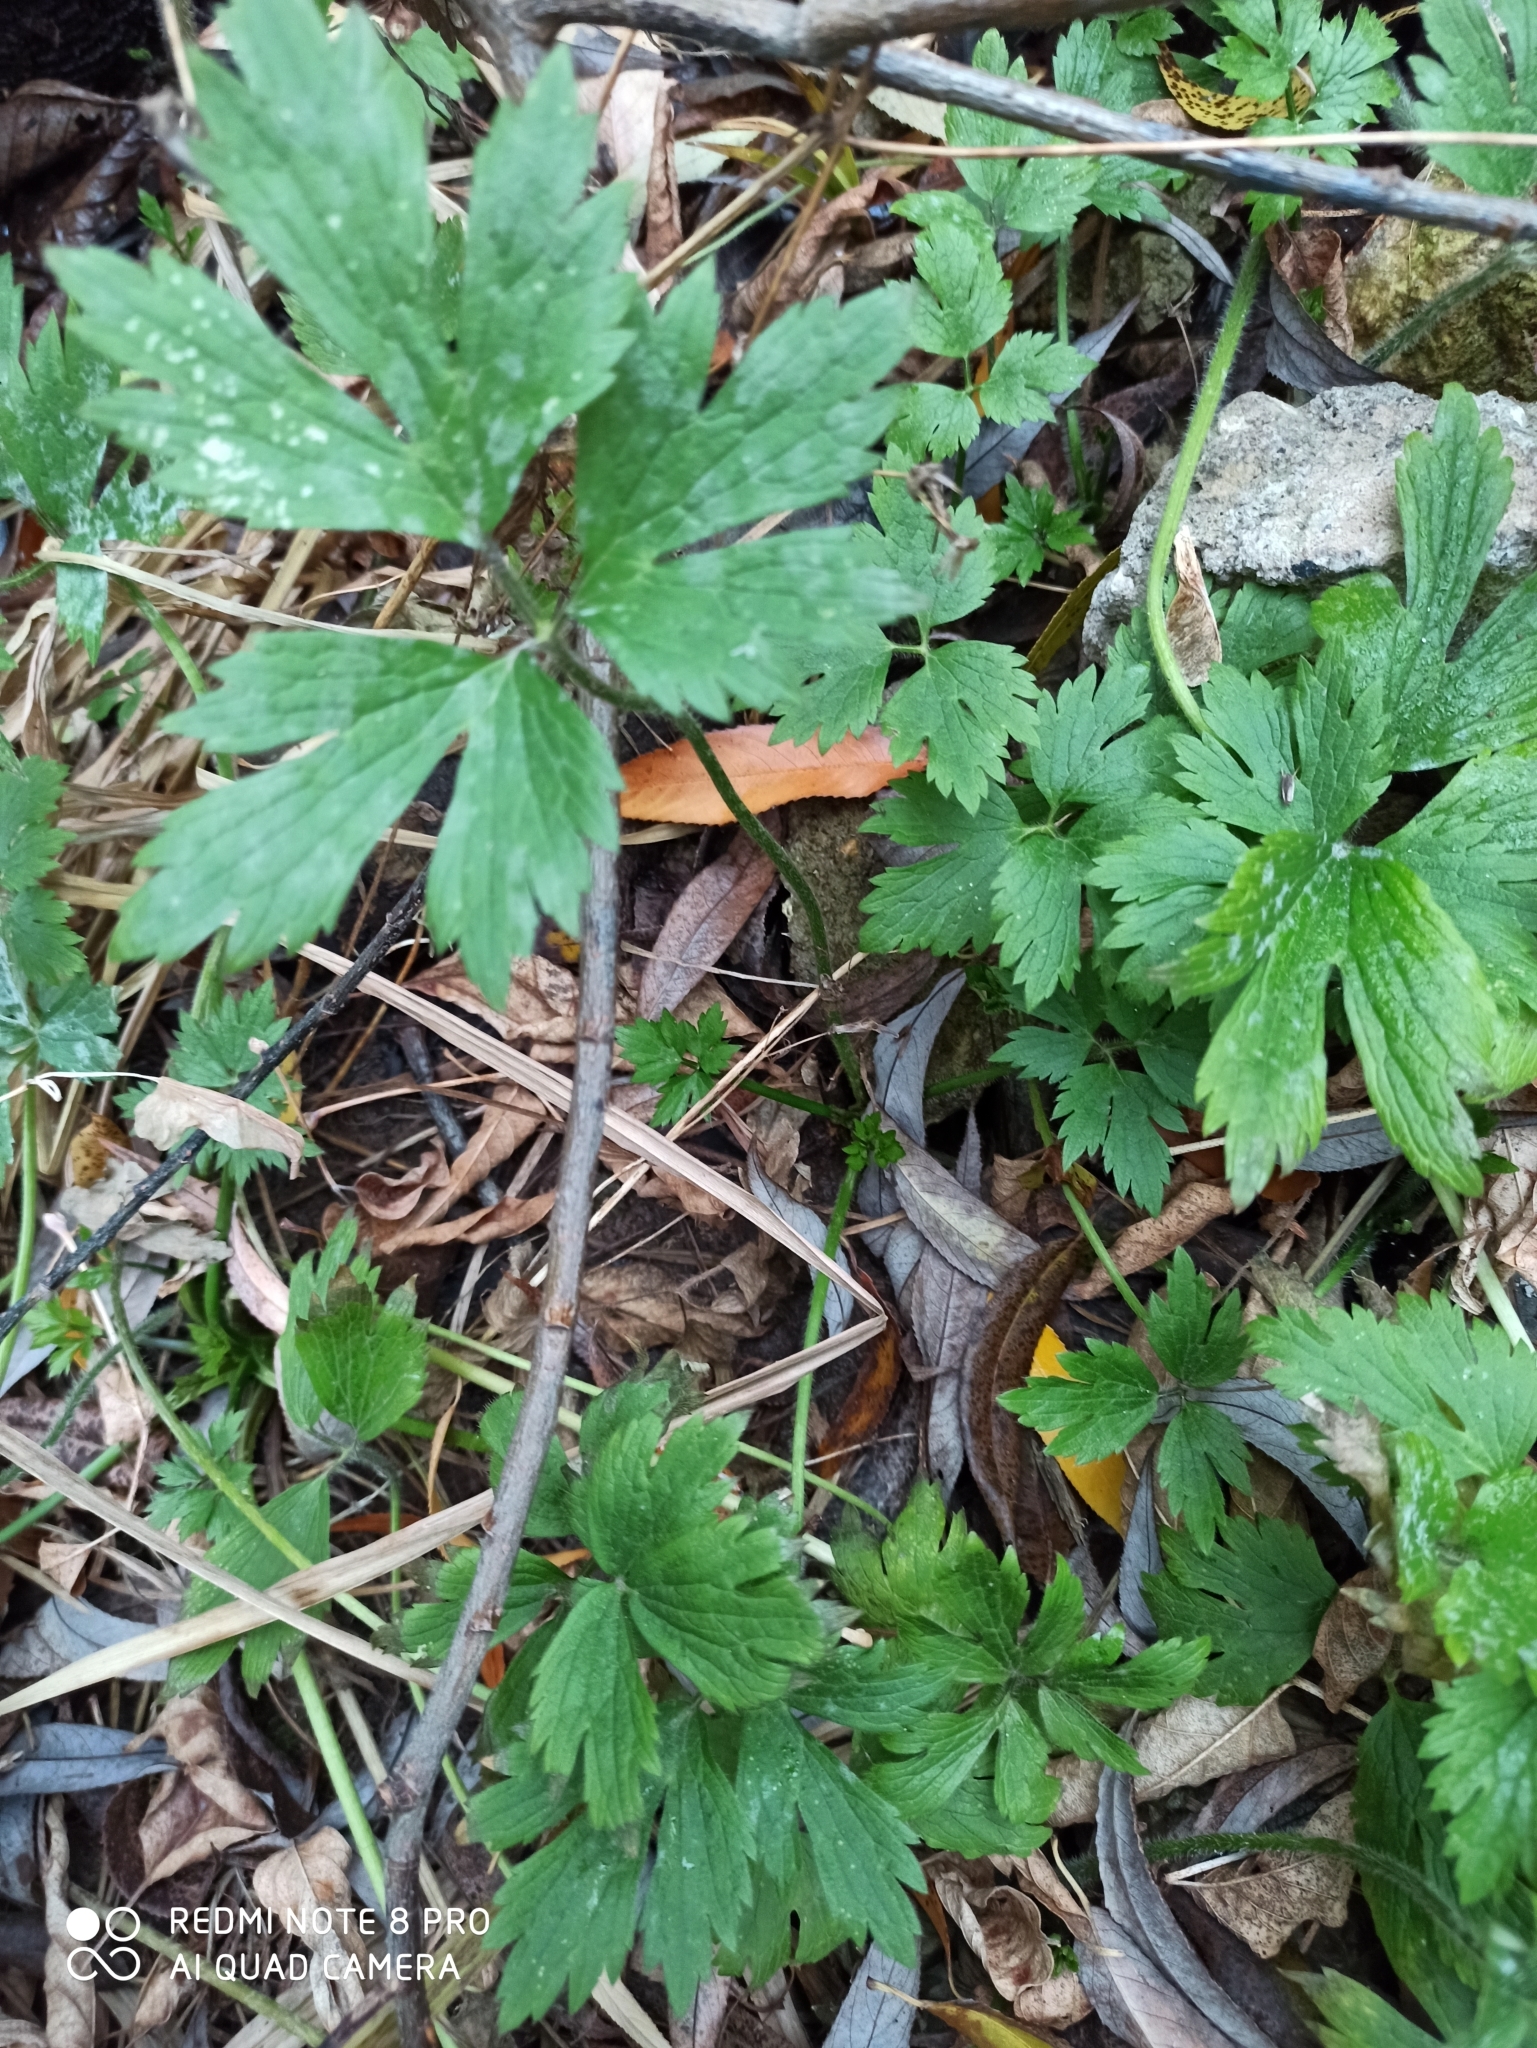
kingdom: Plantae
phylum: Tracheophyta
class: Magnoliopsida
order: Ranunculales
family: Ranunculaceae
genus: Ranunculus
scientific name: Ranunculus repens
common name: Creeping buttercup
